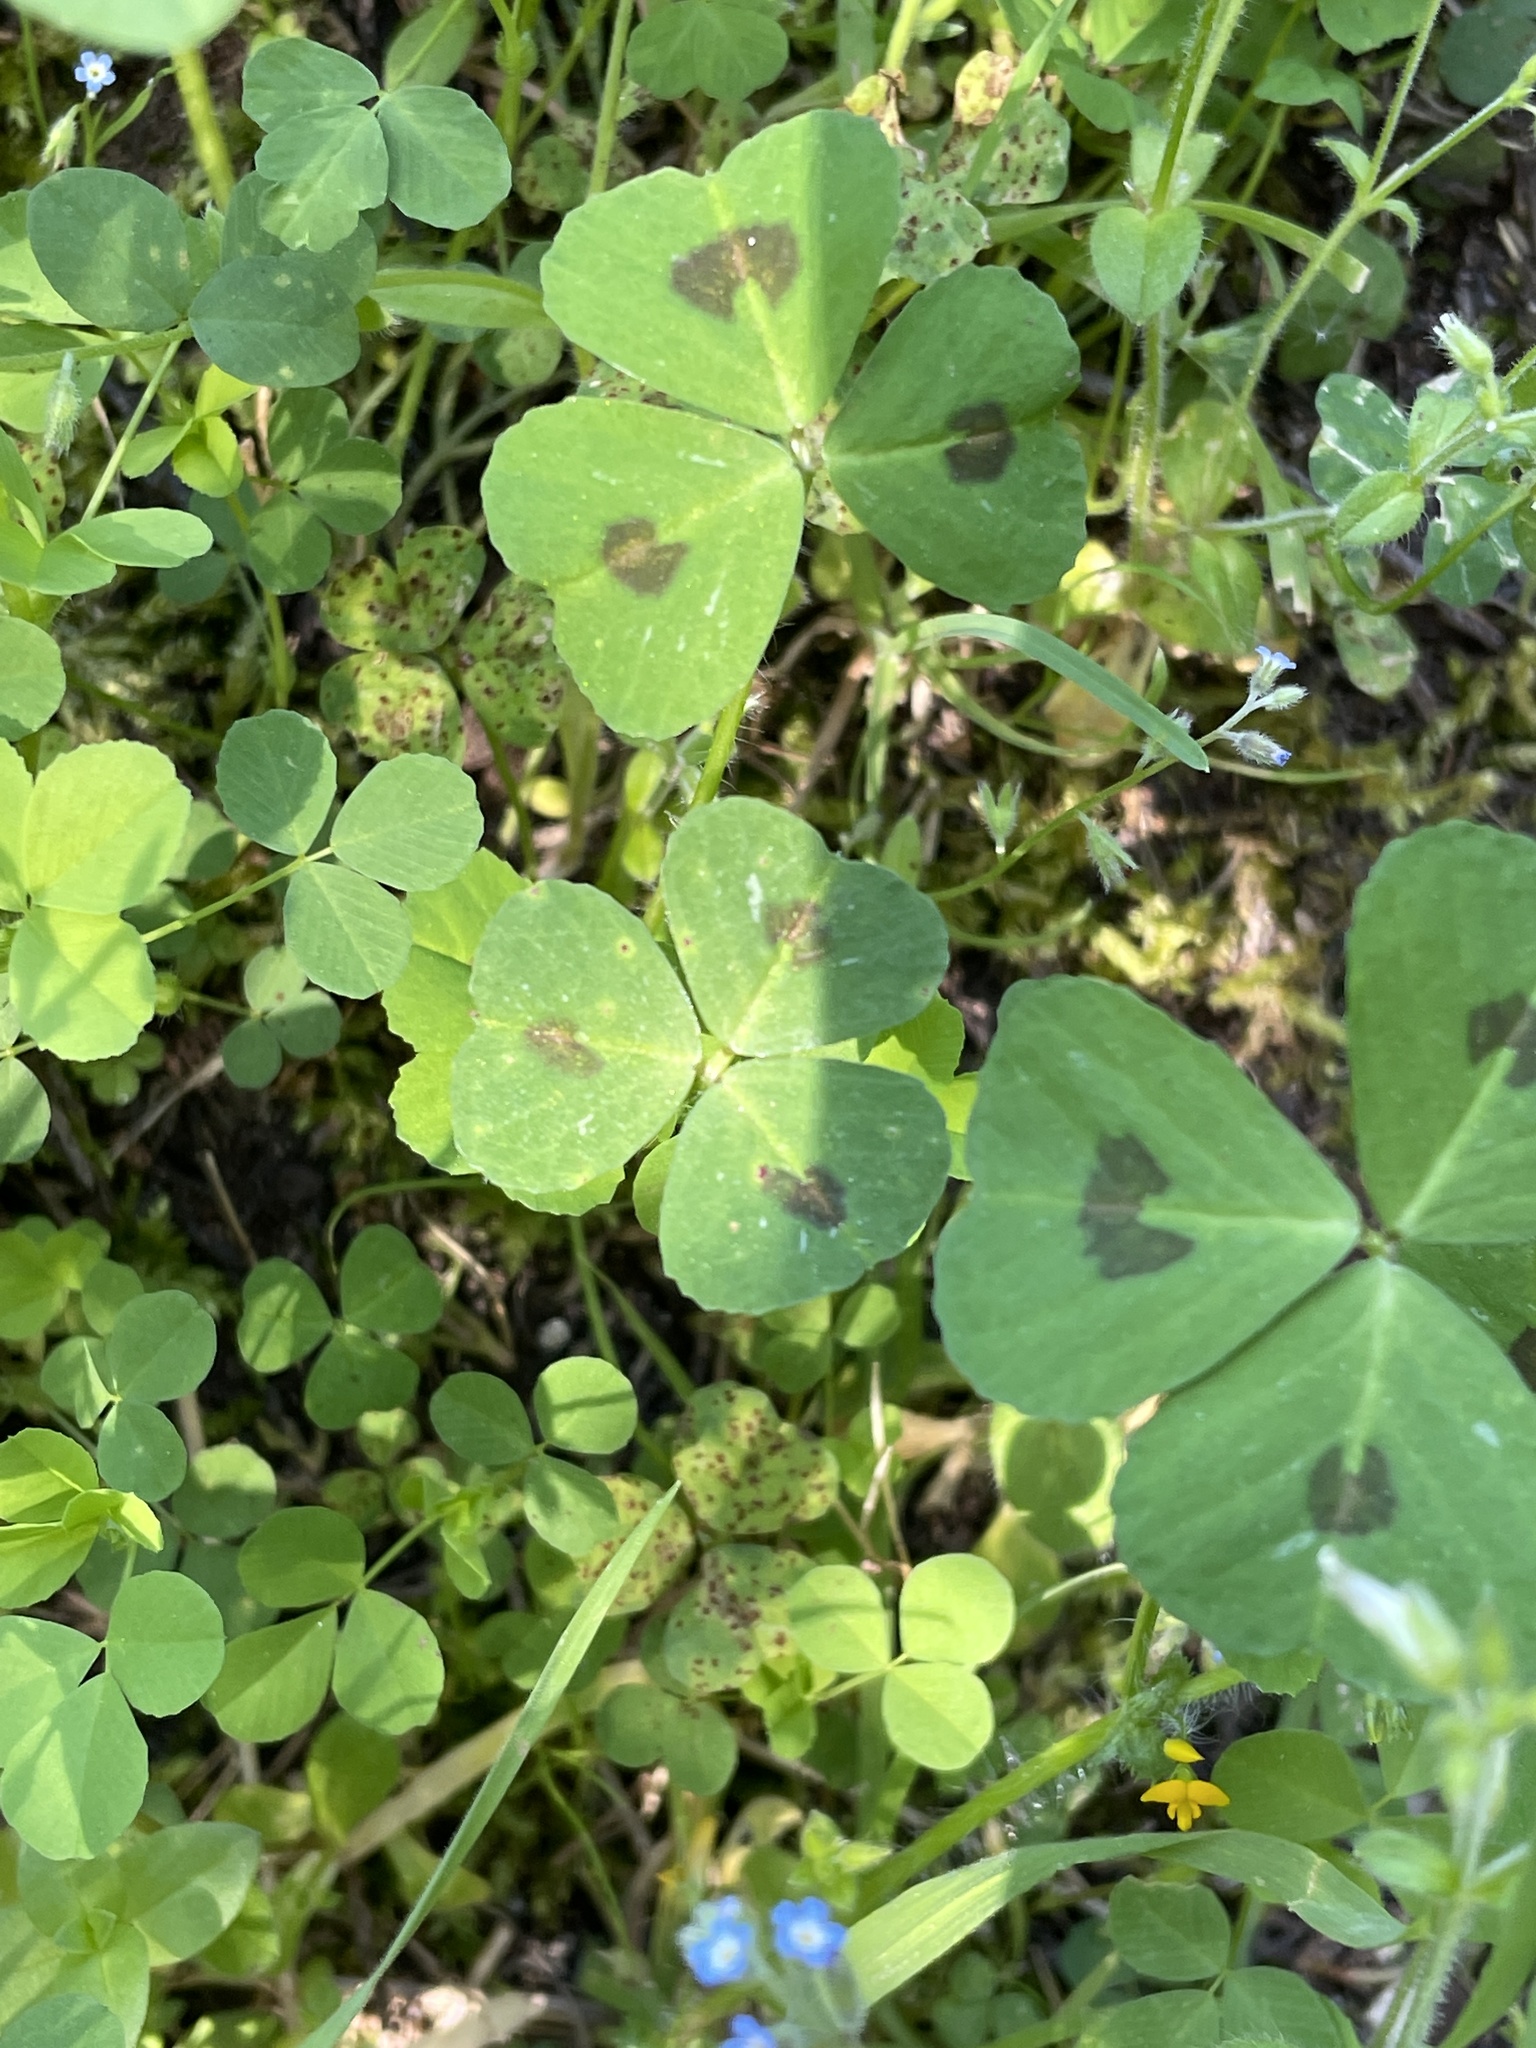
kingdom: Plantae
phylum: Tracheophyta
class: Magnoliopsida
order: Fabales
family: Fabaceae
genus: Medicago
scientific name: Medicago arabica
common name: Spotted medick
